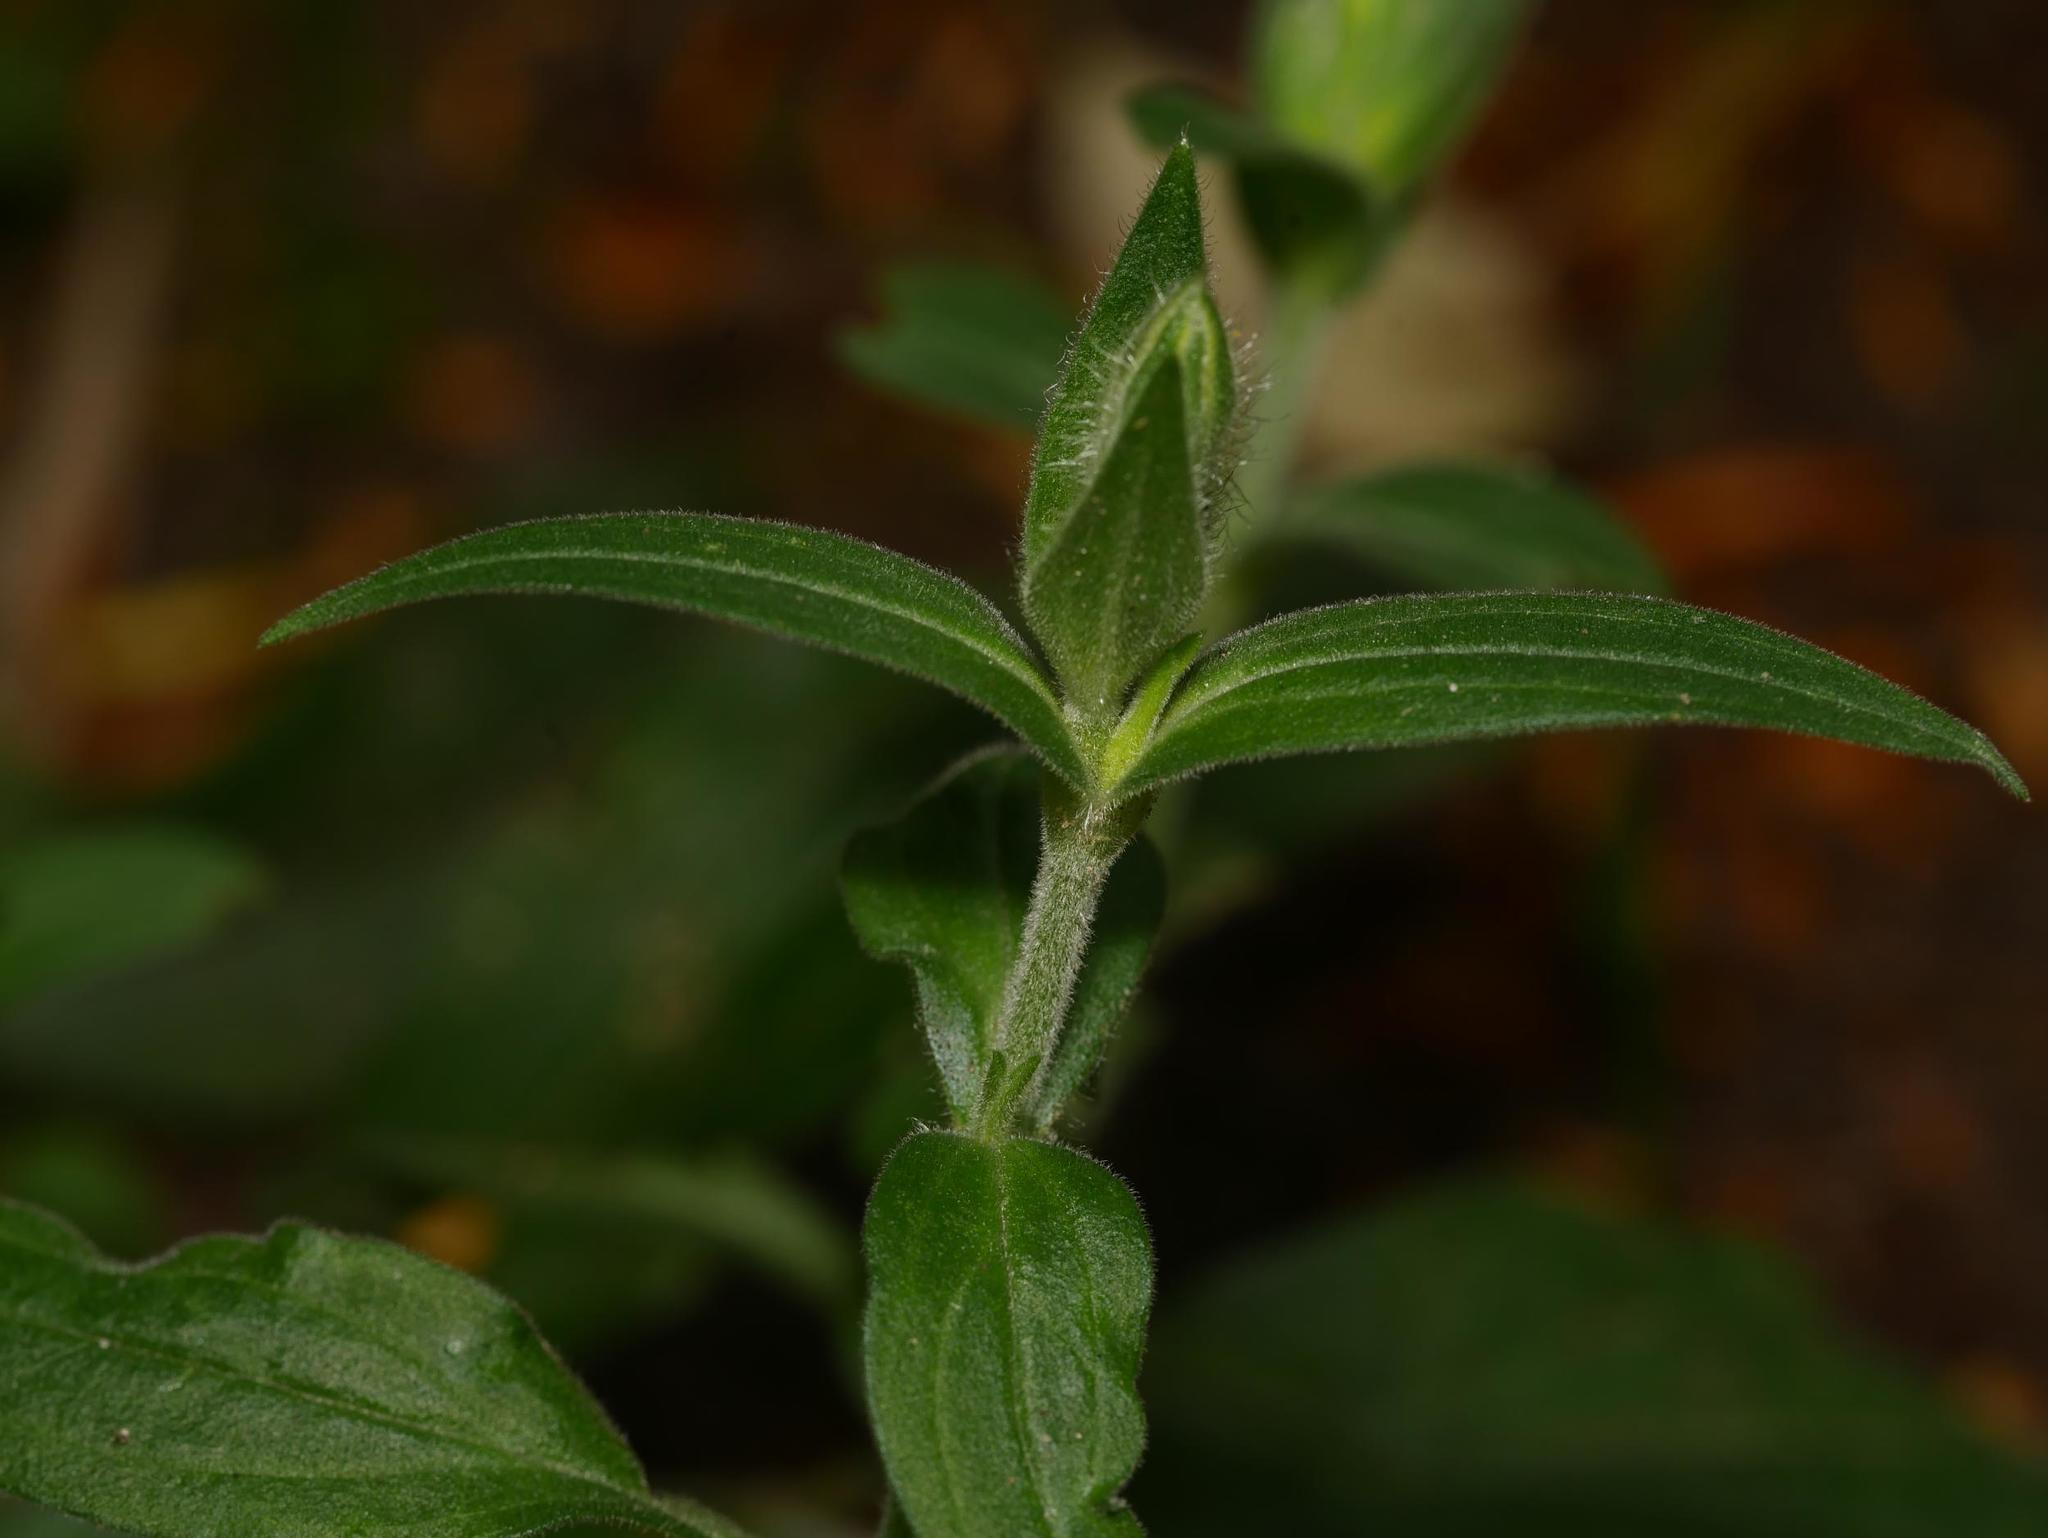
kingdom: Plantae
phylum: Tracheophyta
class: Magnoliopsida
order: Caryophyllales
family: Caryophyllaceae
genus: Silene
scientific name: Silene latifolia
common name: White campion
